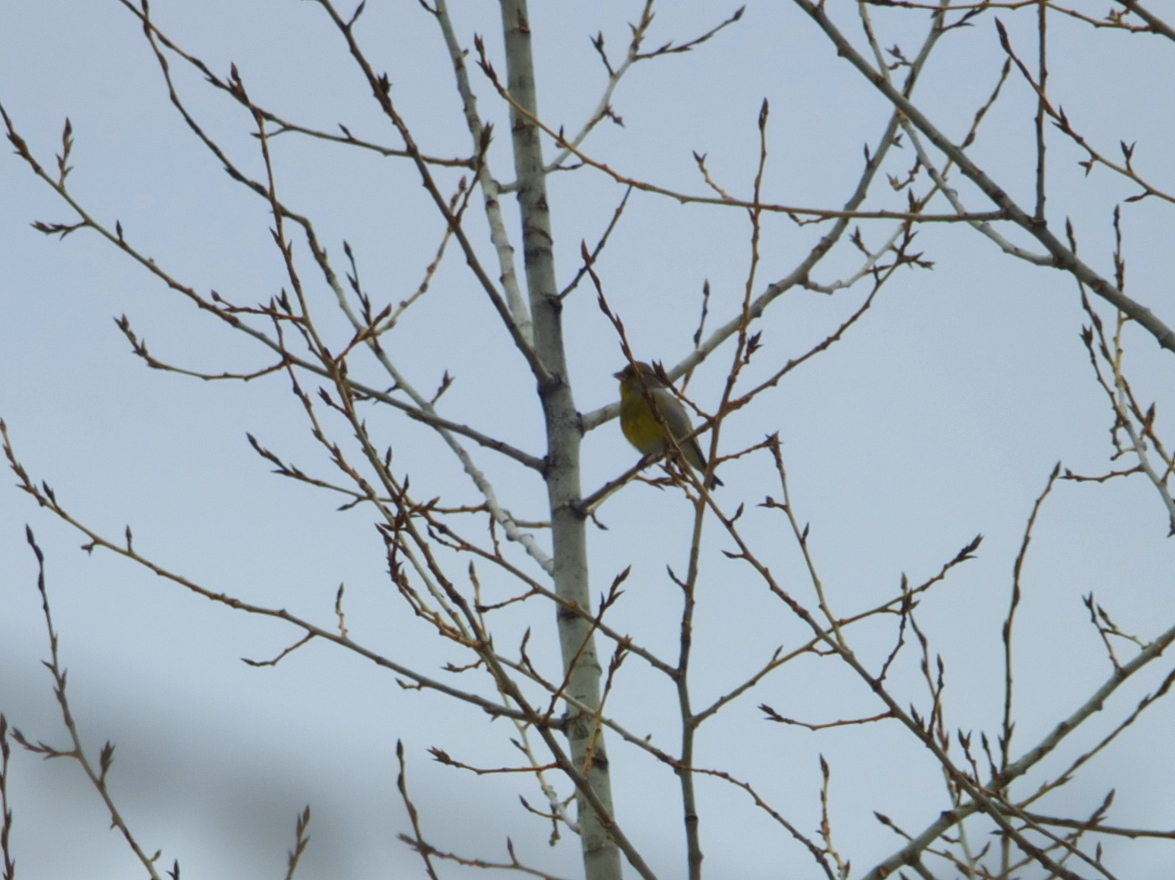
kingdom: Plantae
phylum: Tracheophyta
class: Liliopsida
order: Poales
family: Poaceae
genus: Chloris
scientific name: Chloris chloris
